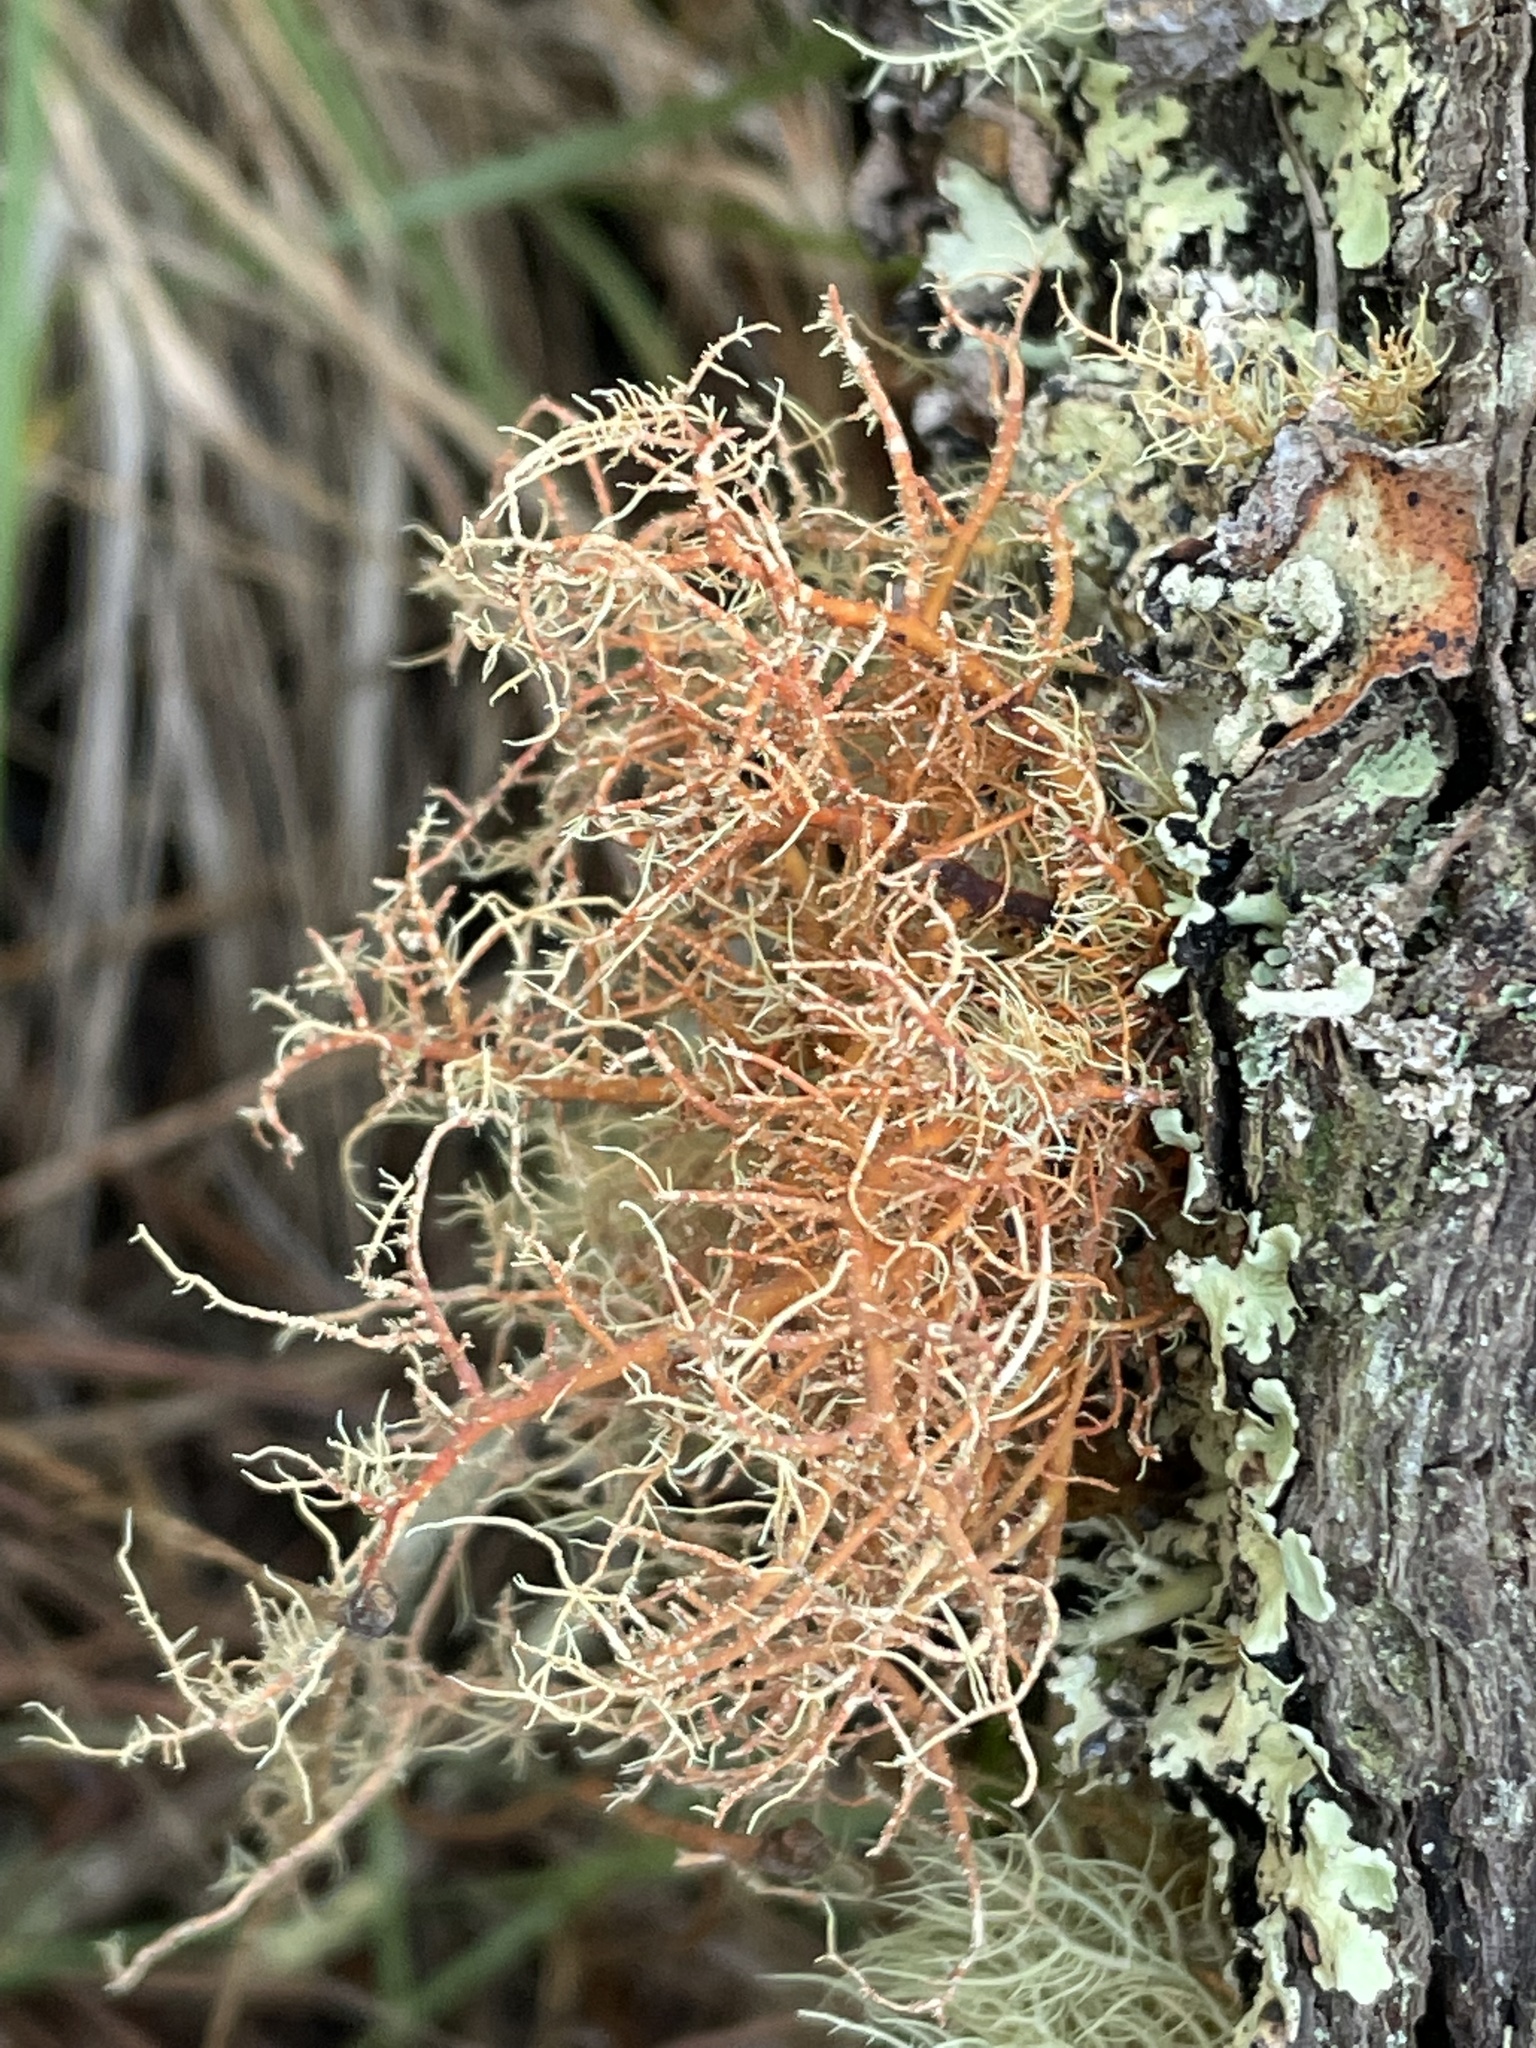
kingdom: Fungi
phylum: Ascomycota
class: Lecanoromycetes
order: Lecanorales
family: Parmeliaceae
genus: Usnea
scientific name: Usnea rubicunda
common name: Red beard lichen
